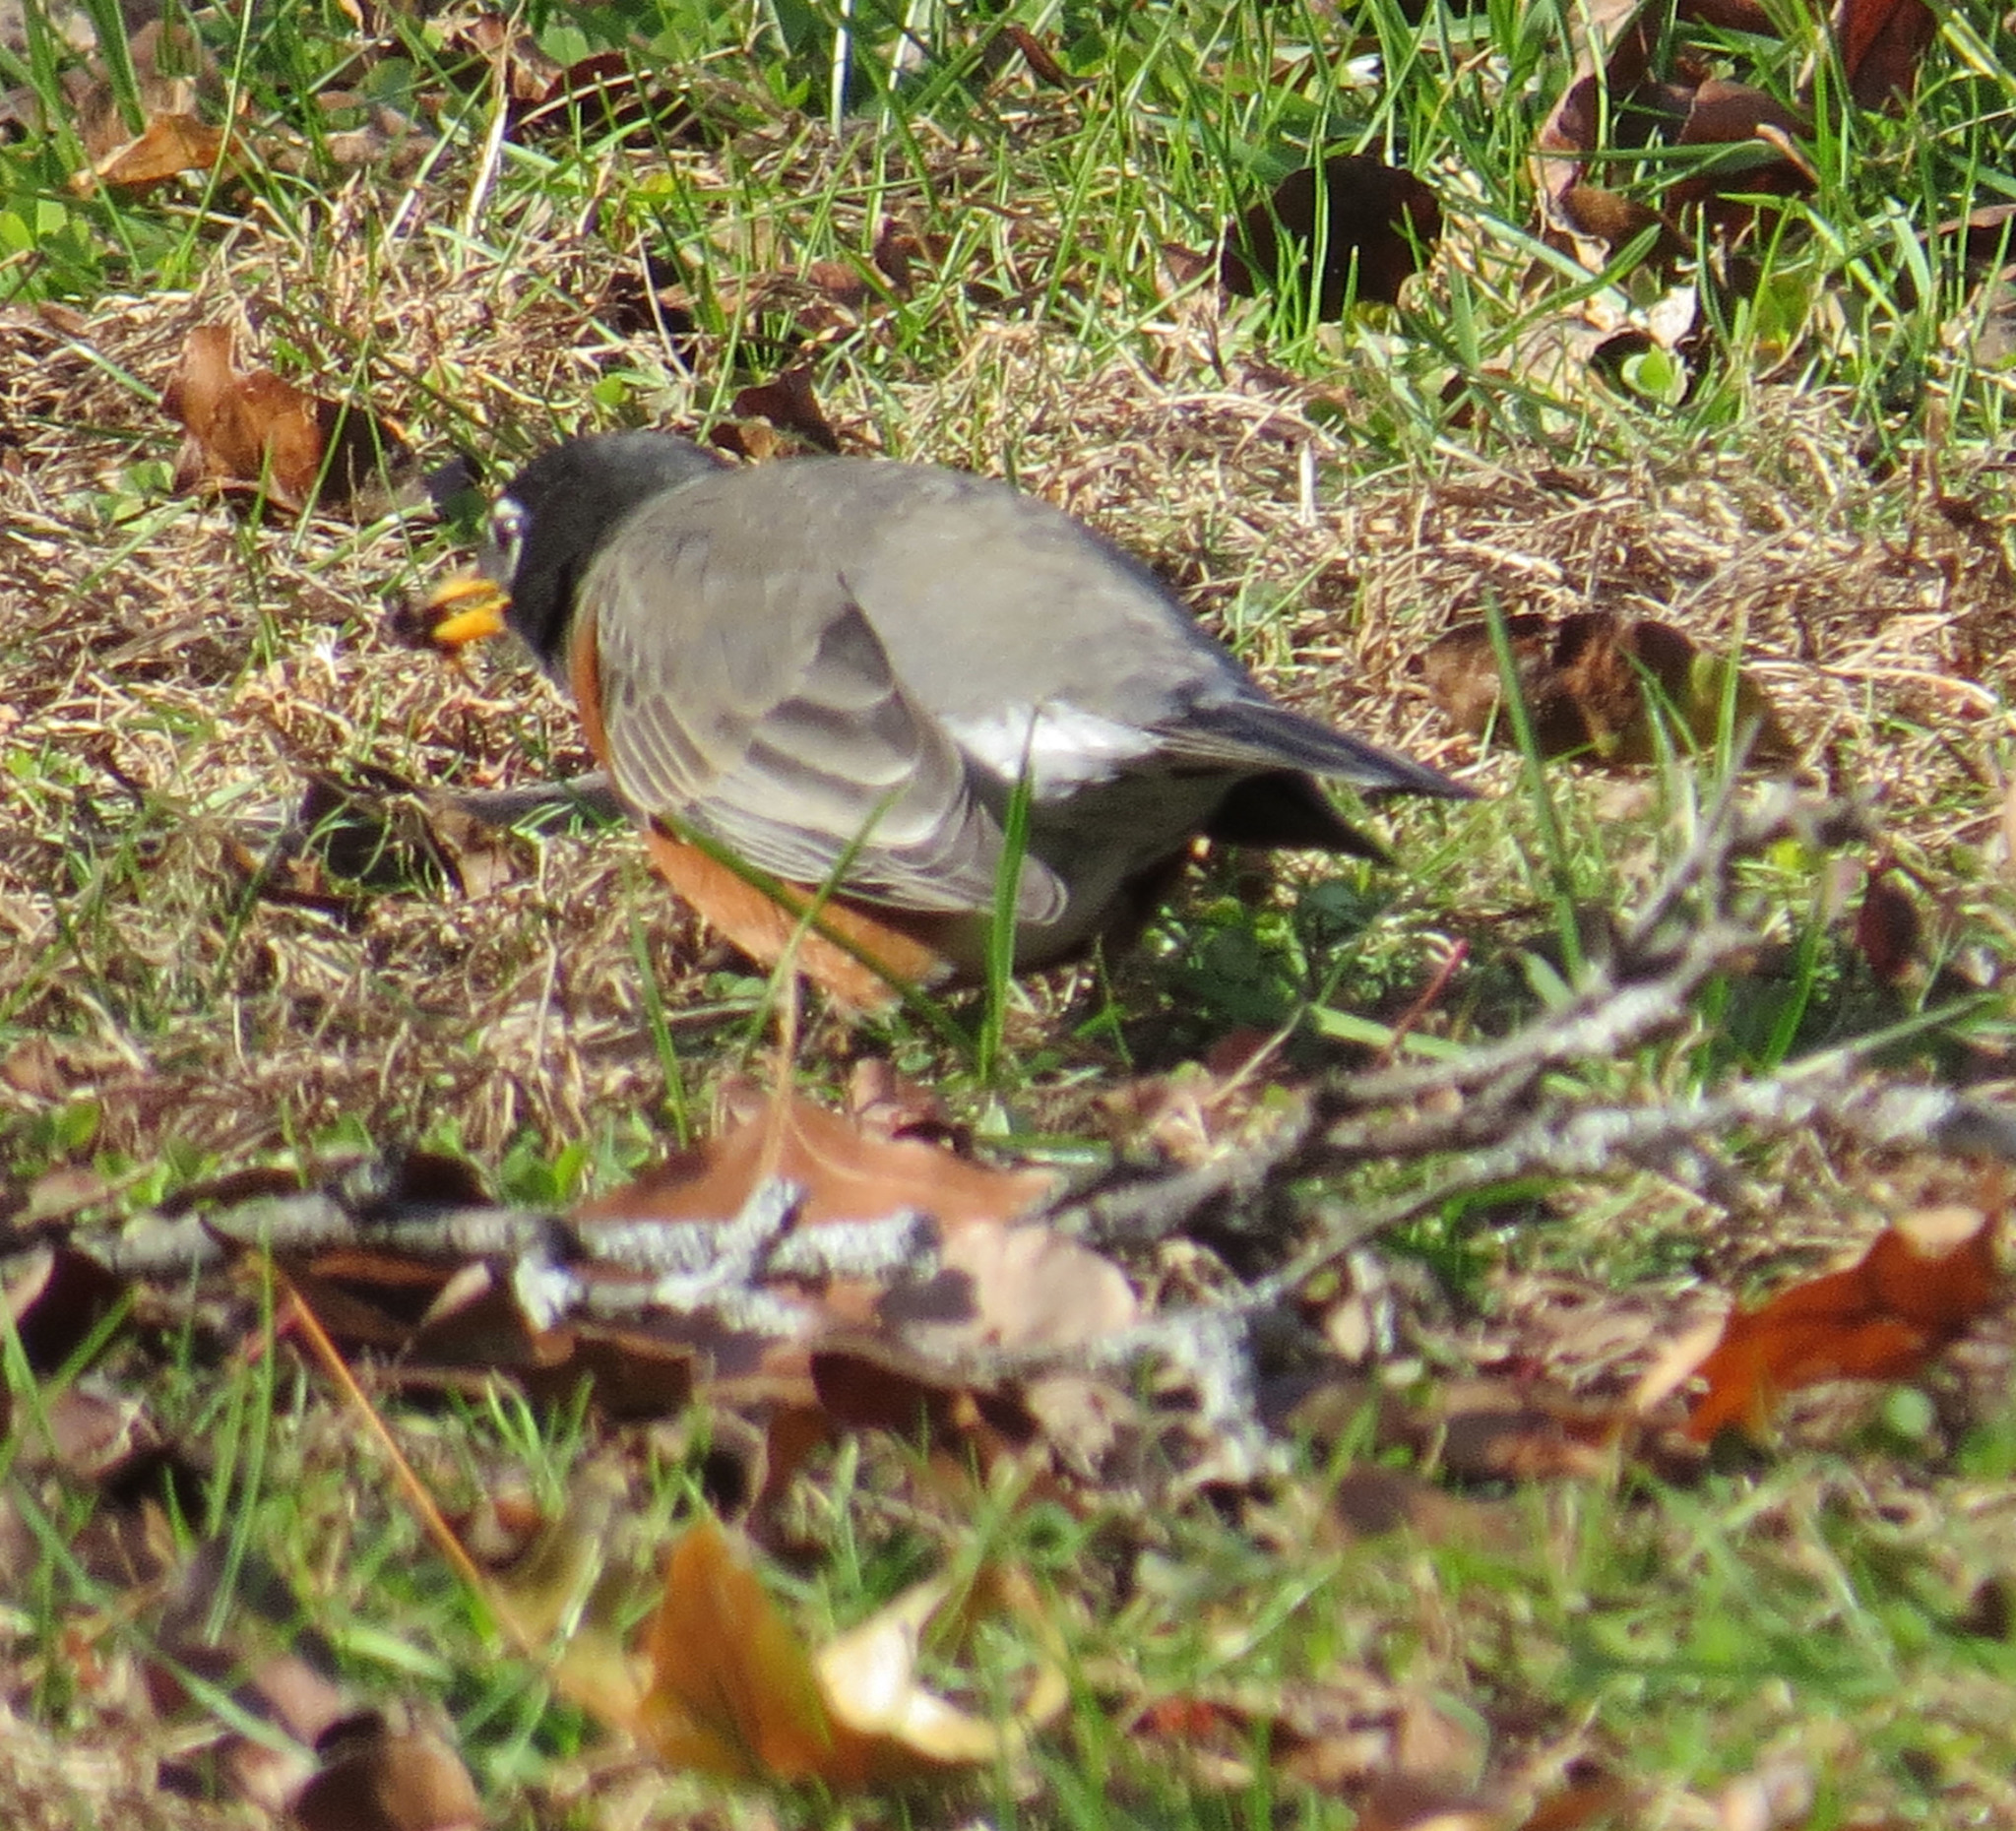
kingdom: Animalia
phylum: Chordata
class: Aves
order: Passeriformes
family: Turdidae
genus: Turdus
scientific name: Turdus migratorius
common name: American robin
